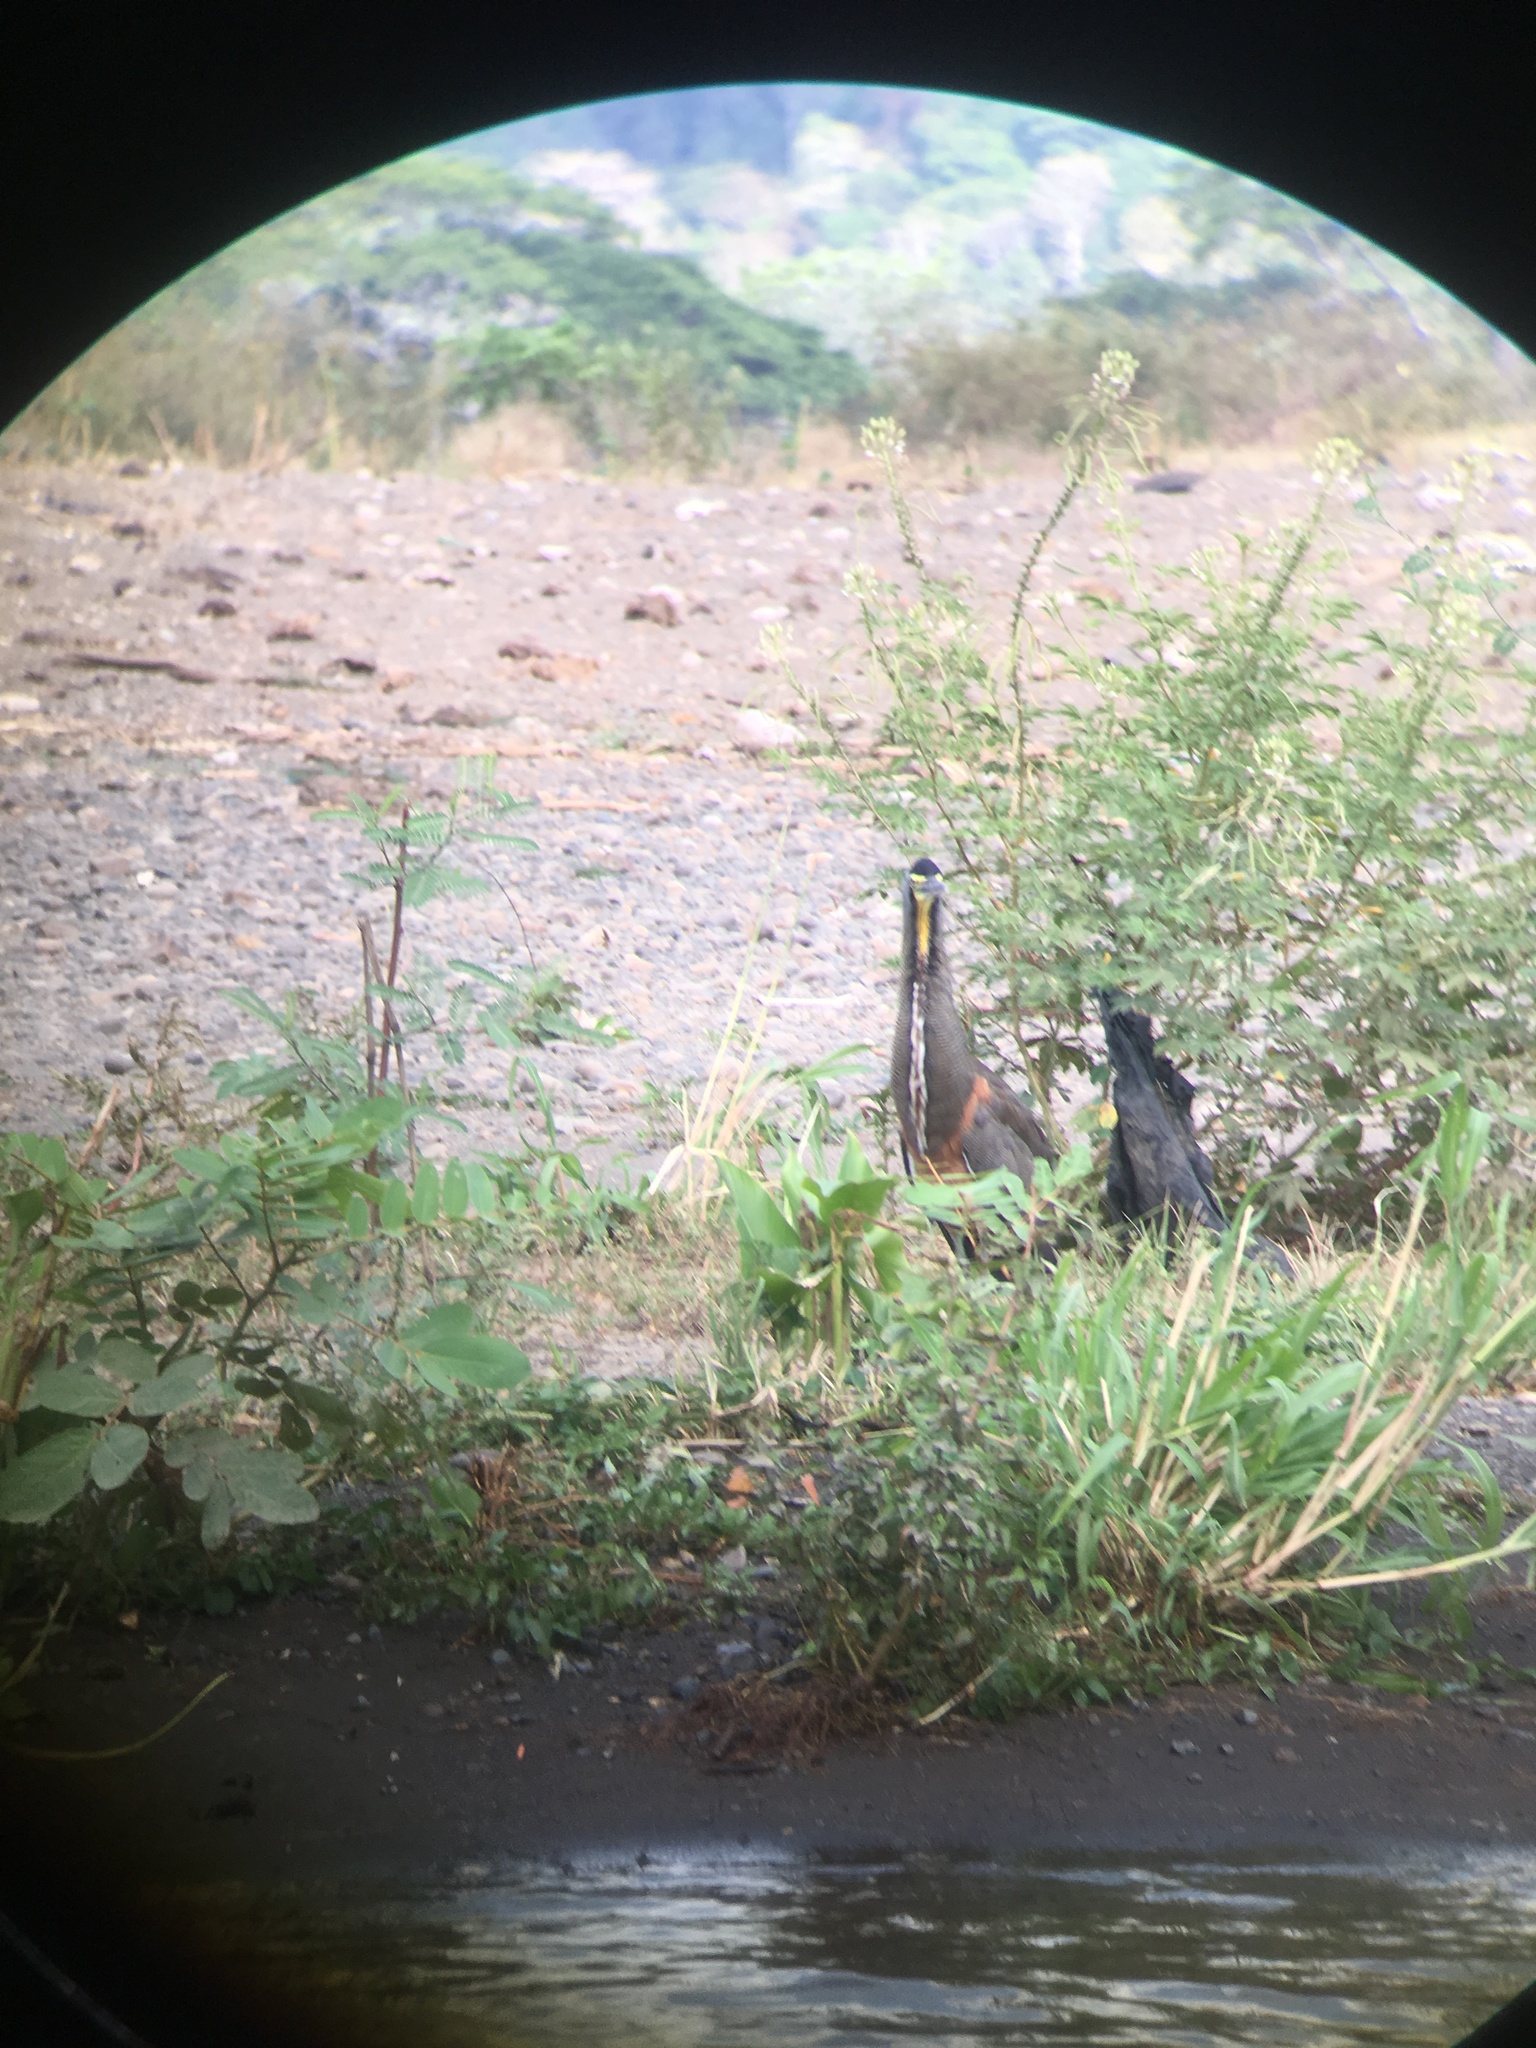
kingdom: Animalia
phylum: Chordata
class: Aves
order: Pelecaniformes
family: Ardeidae
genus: Tigrisoma
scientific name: Tigrisoma mexicanum
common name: Bare-throated tiger-heron
